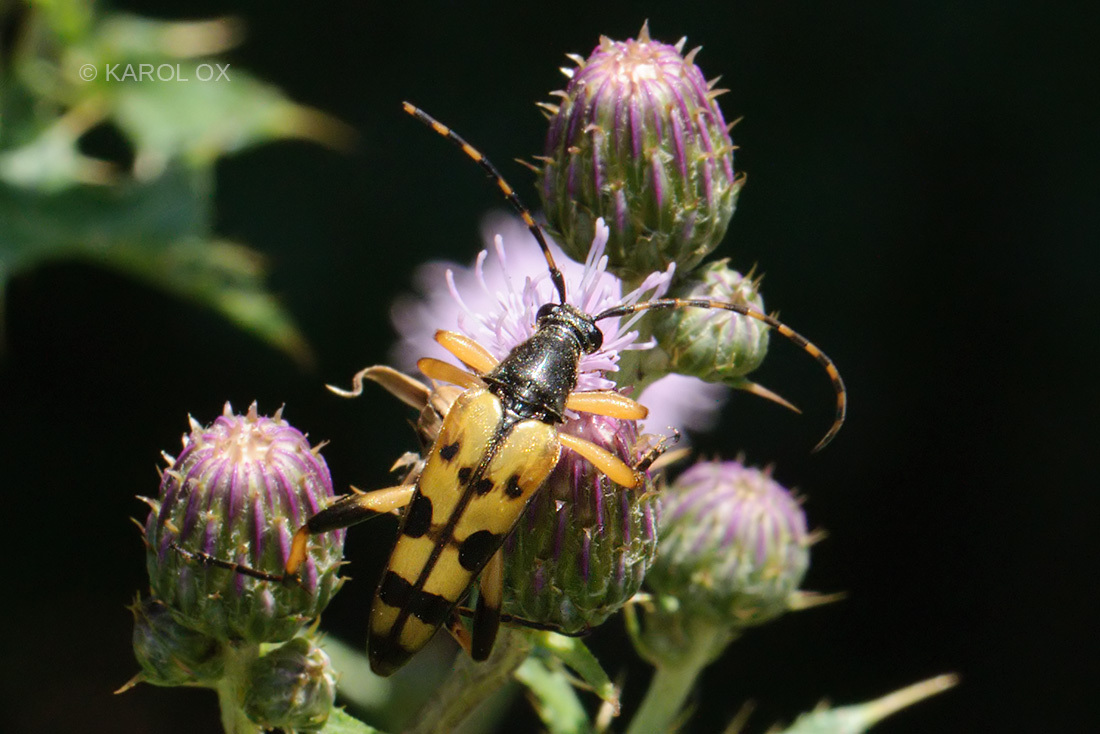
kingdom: Animalia
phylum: Arthropoda
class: Insecta
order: Coleoptera
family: Cerambycidae
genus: Rutpela
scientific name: Rutpela maculata
